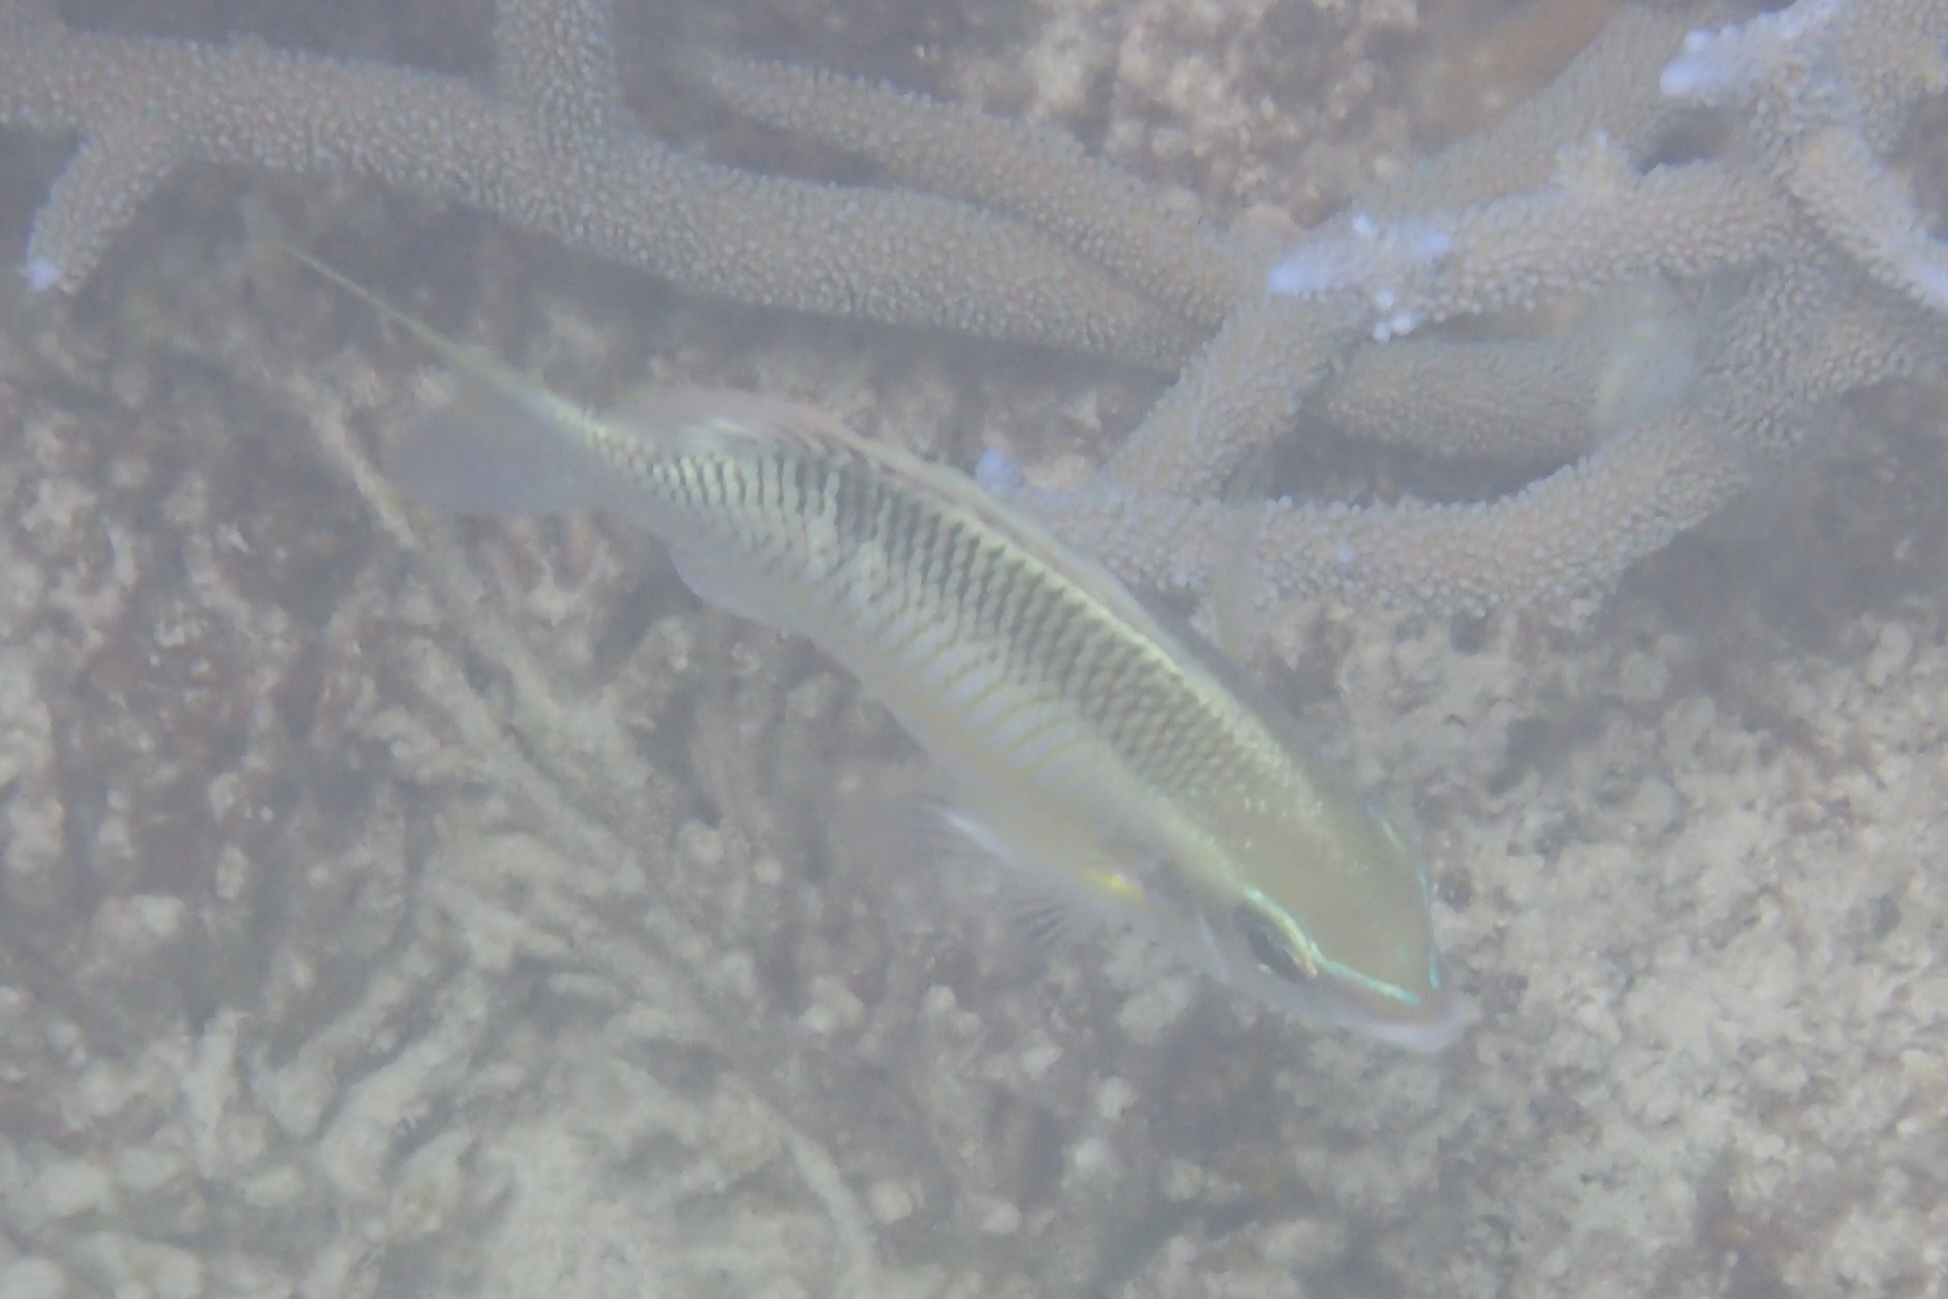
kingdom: Animalia
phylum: Chordata
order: Perciformes
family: Nemipteridae
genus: Scolopsis
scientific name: Scolopsis margaritifera
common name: Pearly monocle bream
